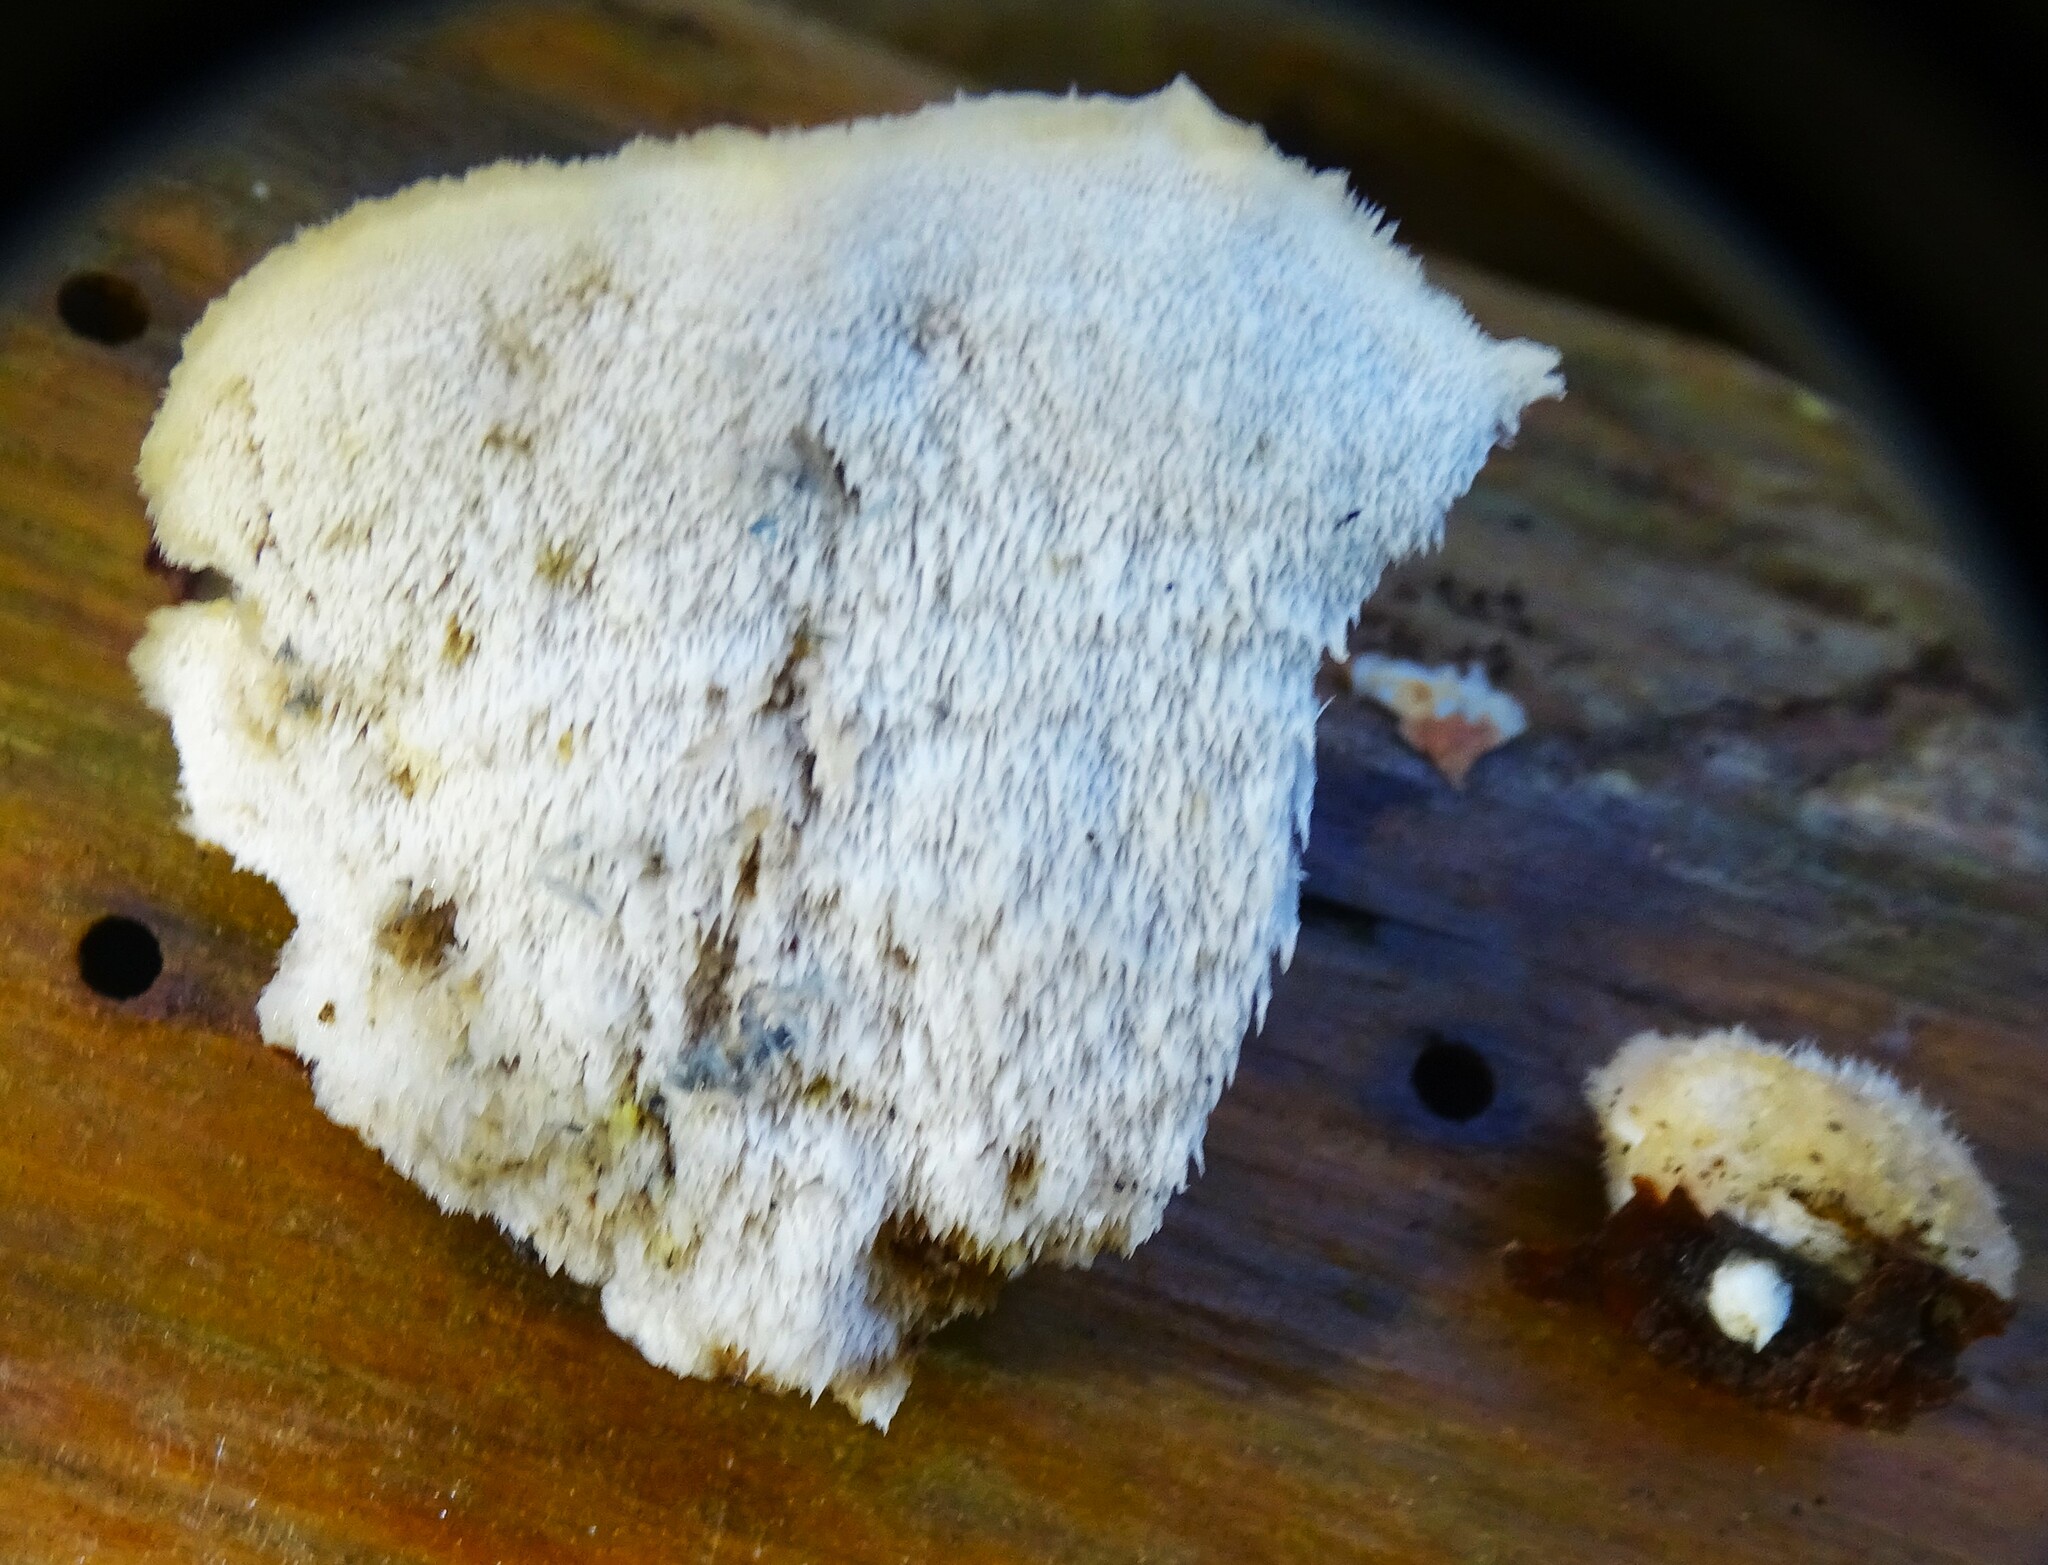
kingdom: Fungi
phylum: Basidiomycota
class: Agaricomycetes
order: Polyporales
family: Meruliaceae
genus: Donkia
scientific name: Donkia pulcherrima
